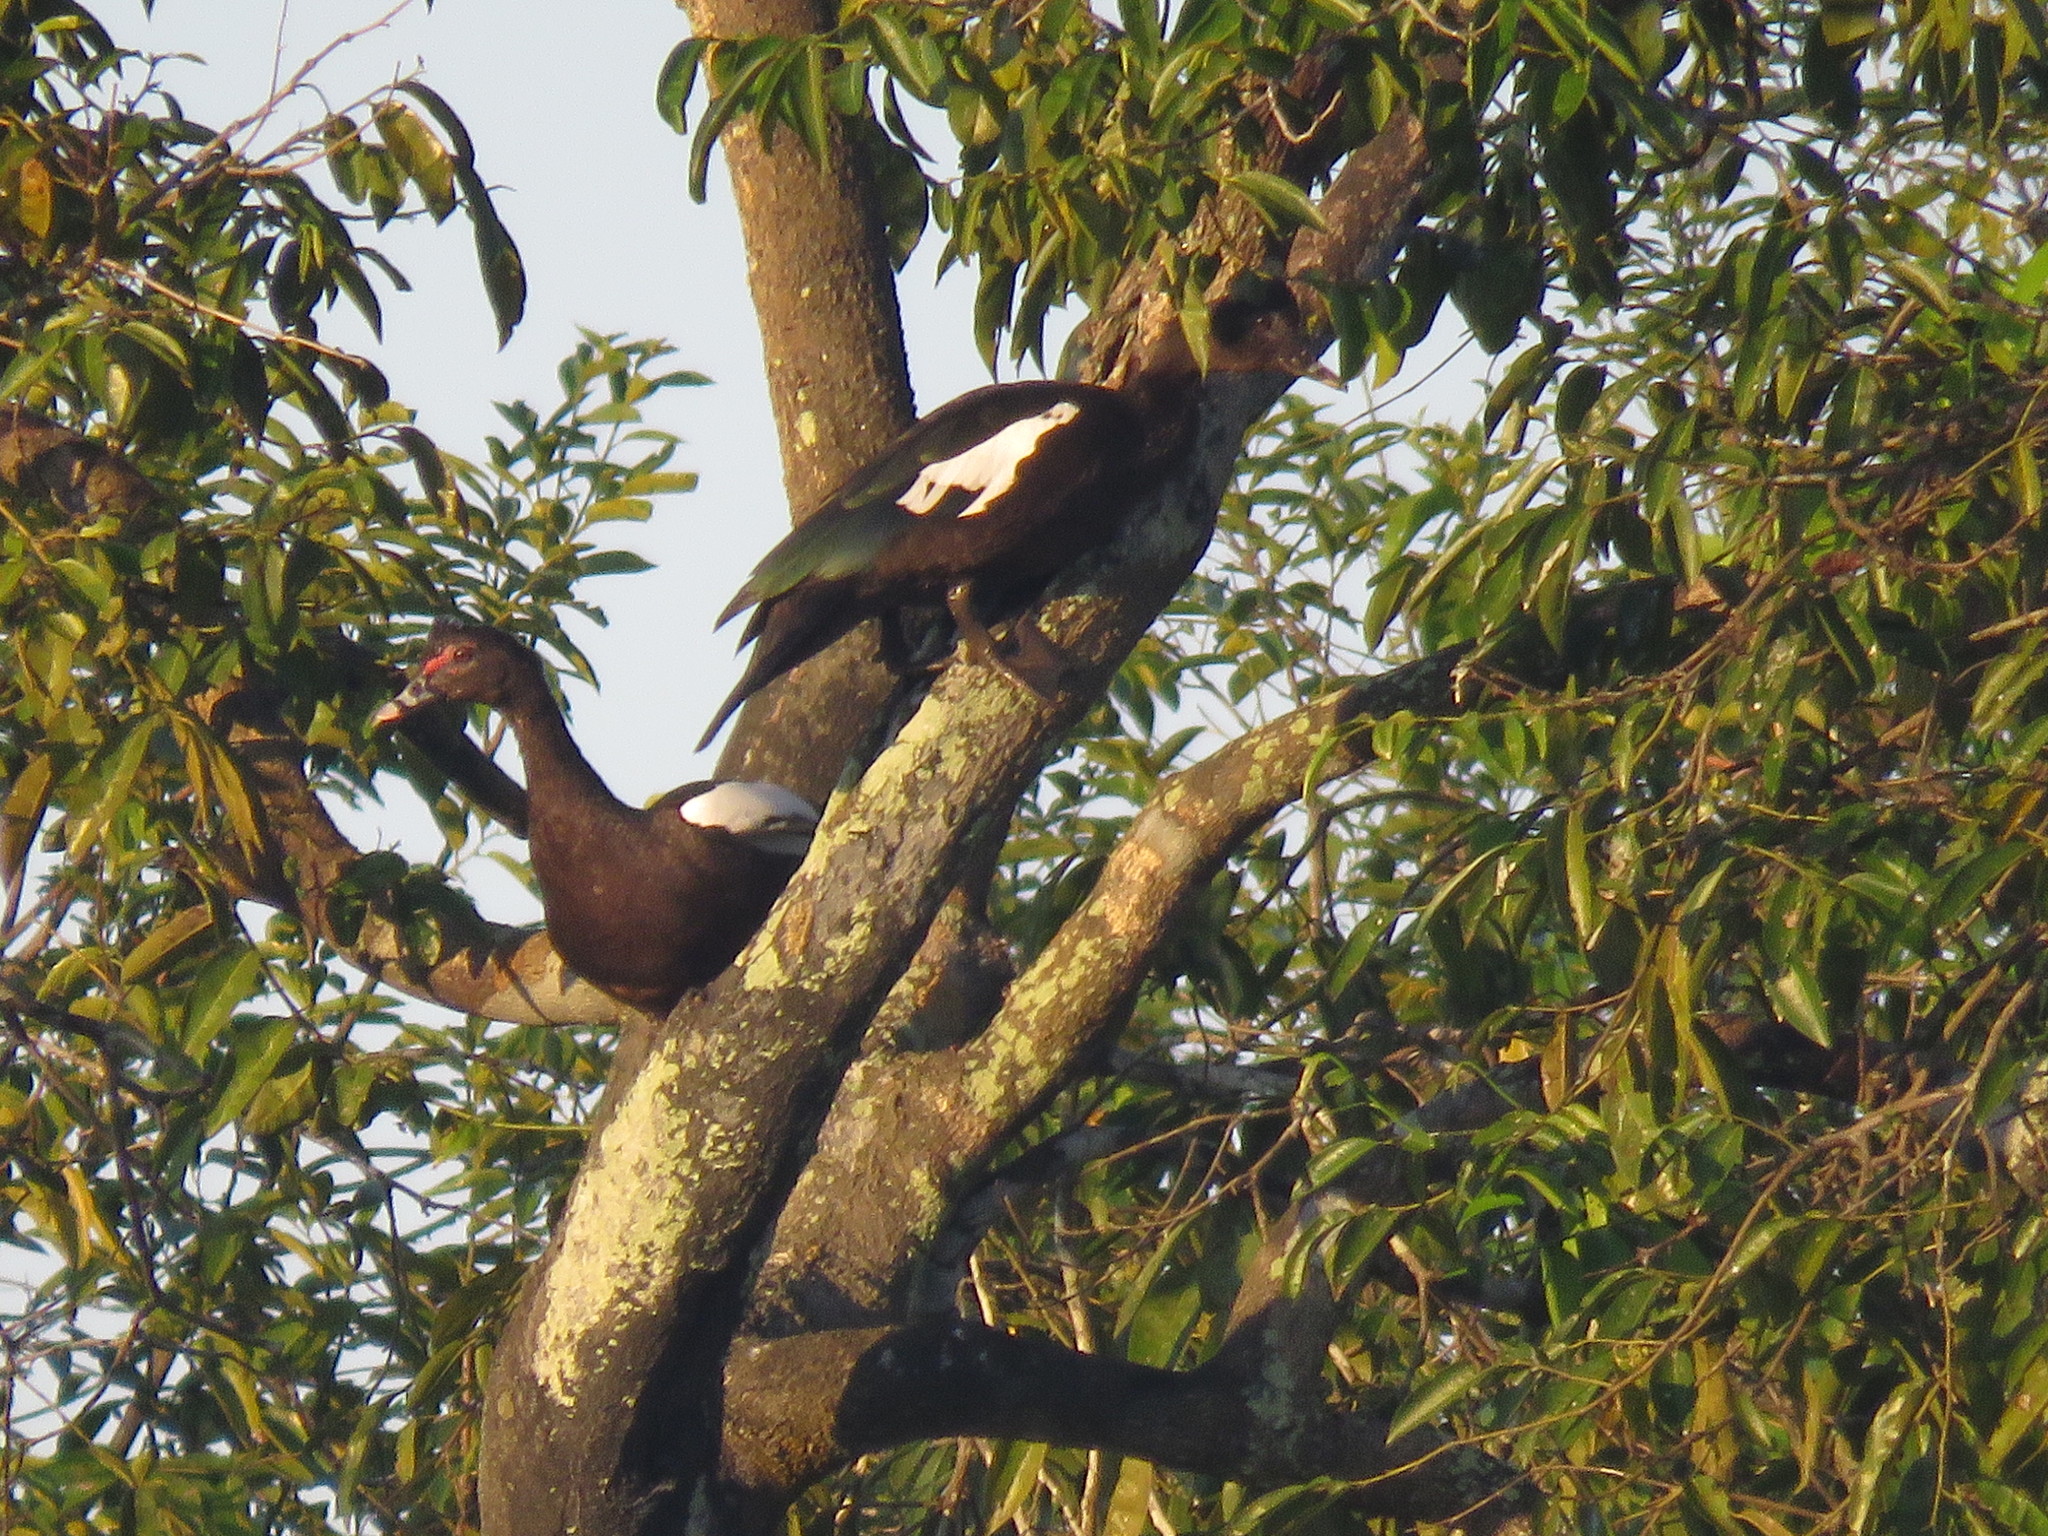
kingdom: Animalia
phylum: Chordata
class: Aves
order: Anseriformes
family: Anatidae
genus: Cairina
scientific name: Cairina moschata
